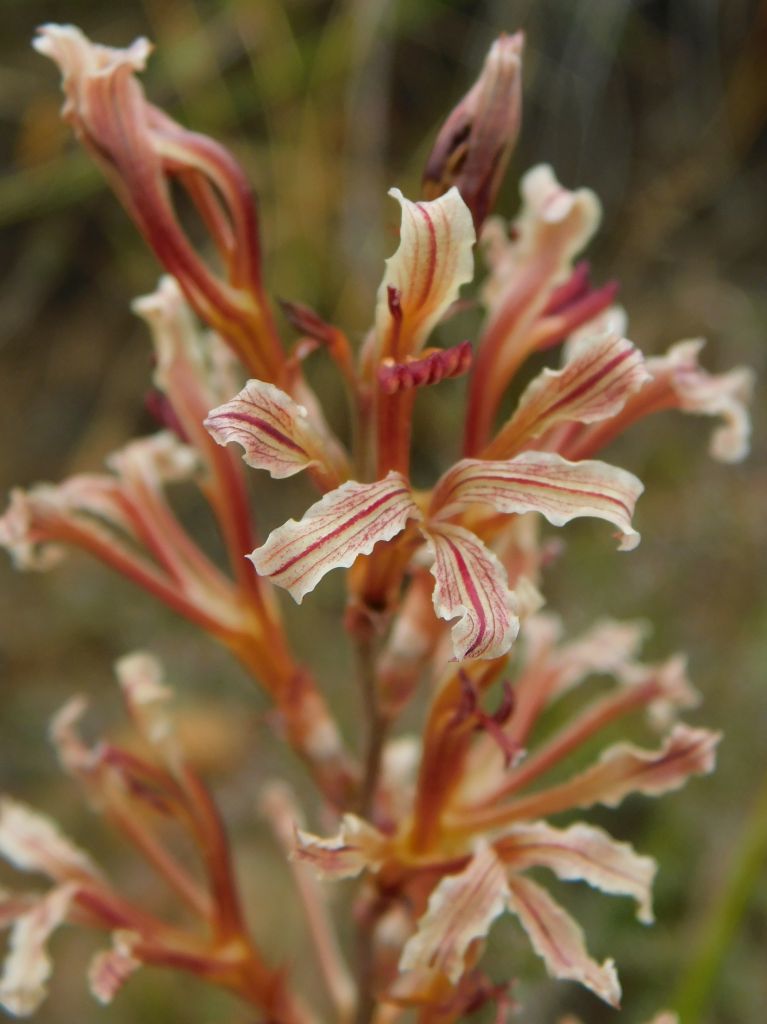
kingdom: Plantae
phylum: Tracheophyta
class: Liliopsida
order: Asparagales
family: Iridaceae
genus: Tritoniopsis
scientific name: Tritoniopsis elongata
